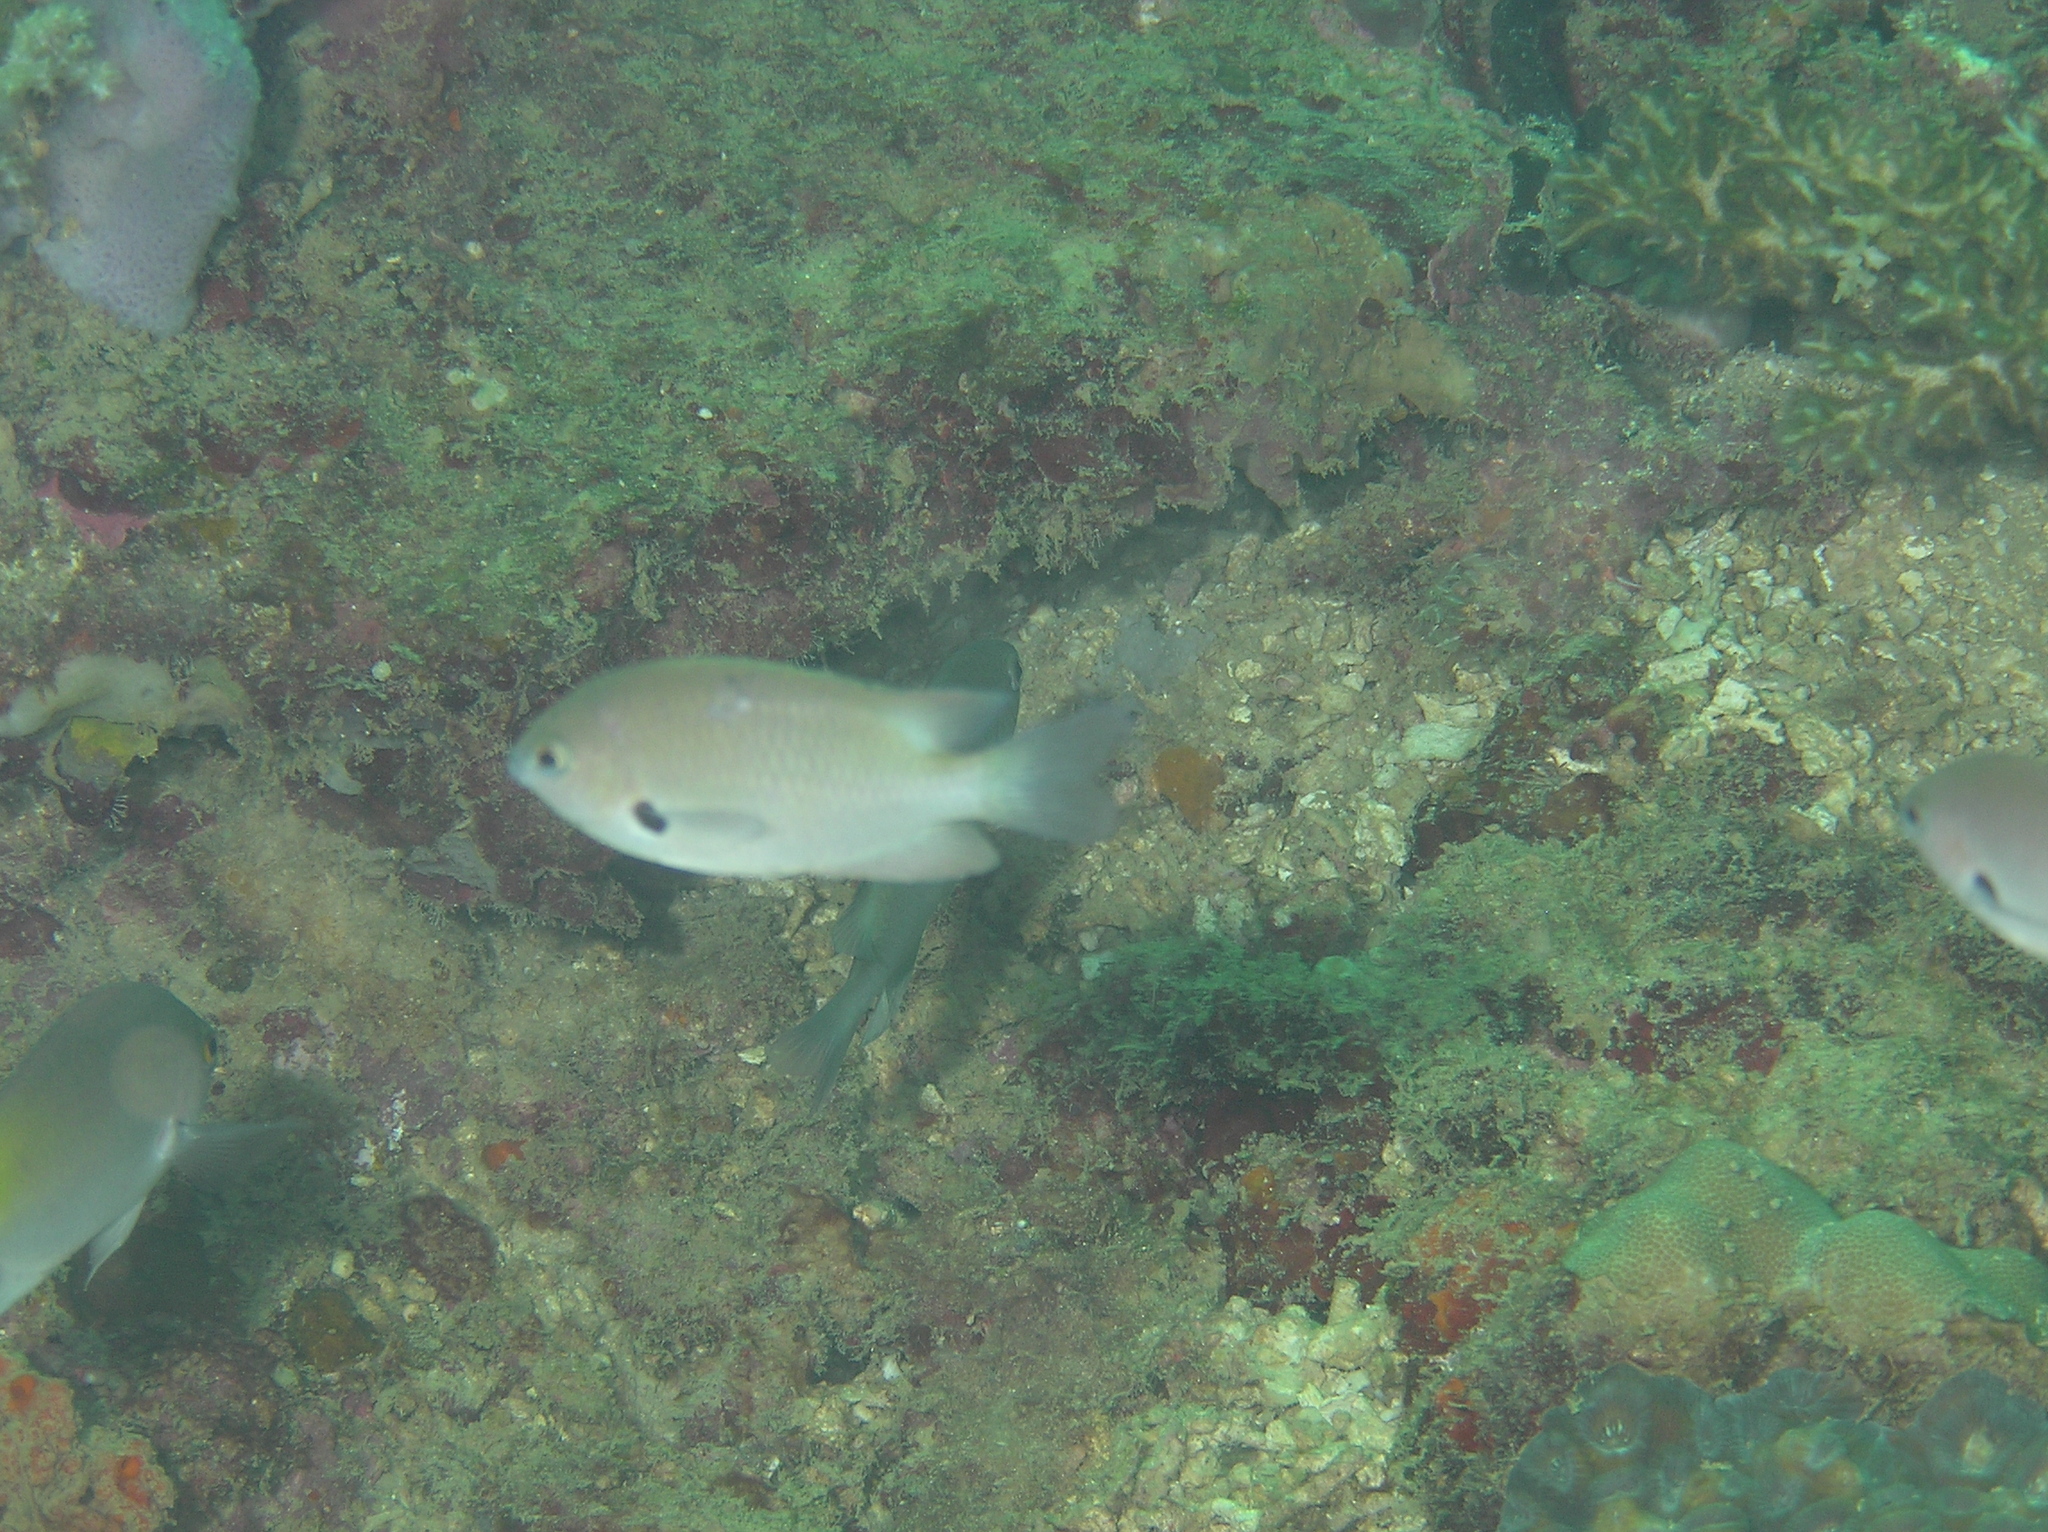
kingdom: Animalia
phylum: Chordata
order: Perciformes
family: Pomacentridae
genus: Pomacentrus
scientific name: Pomacentrus alexanderae
